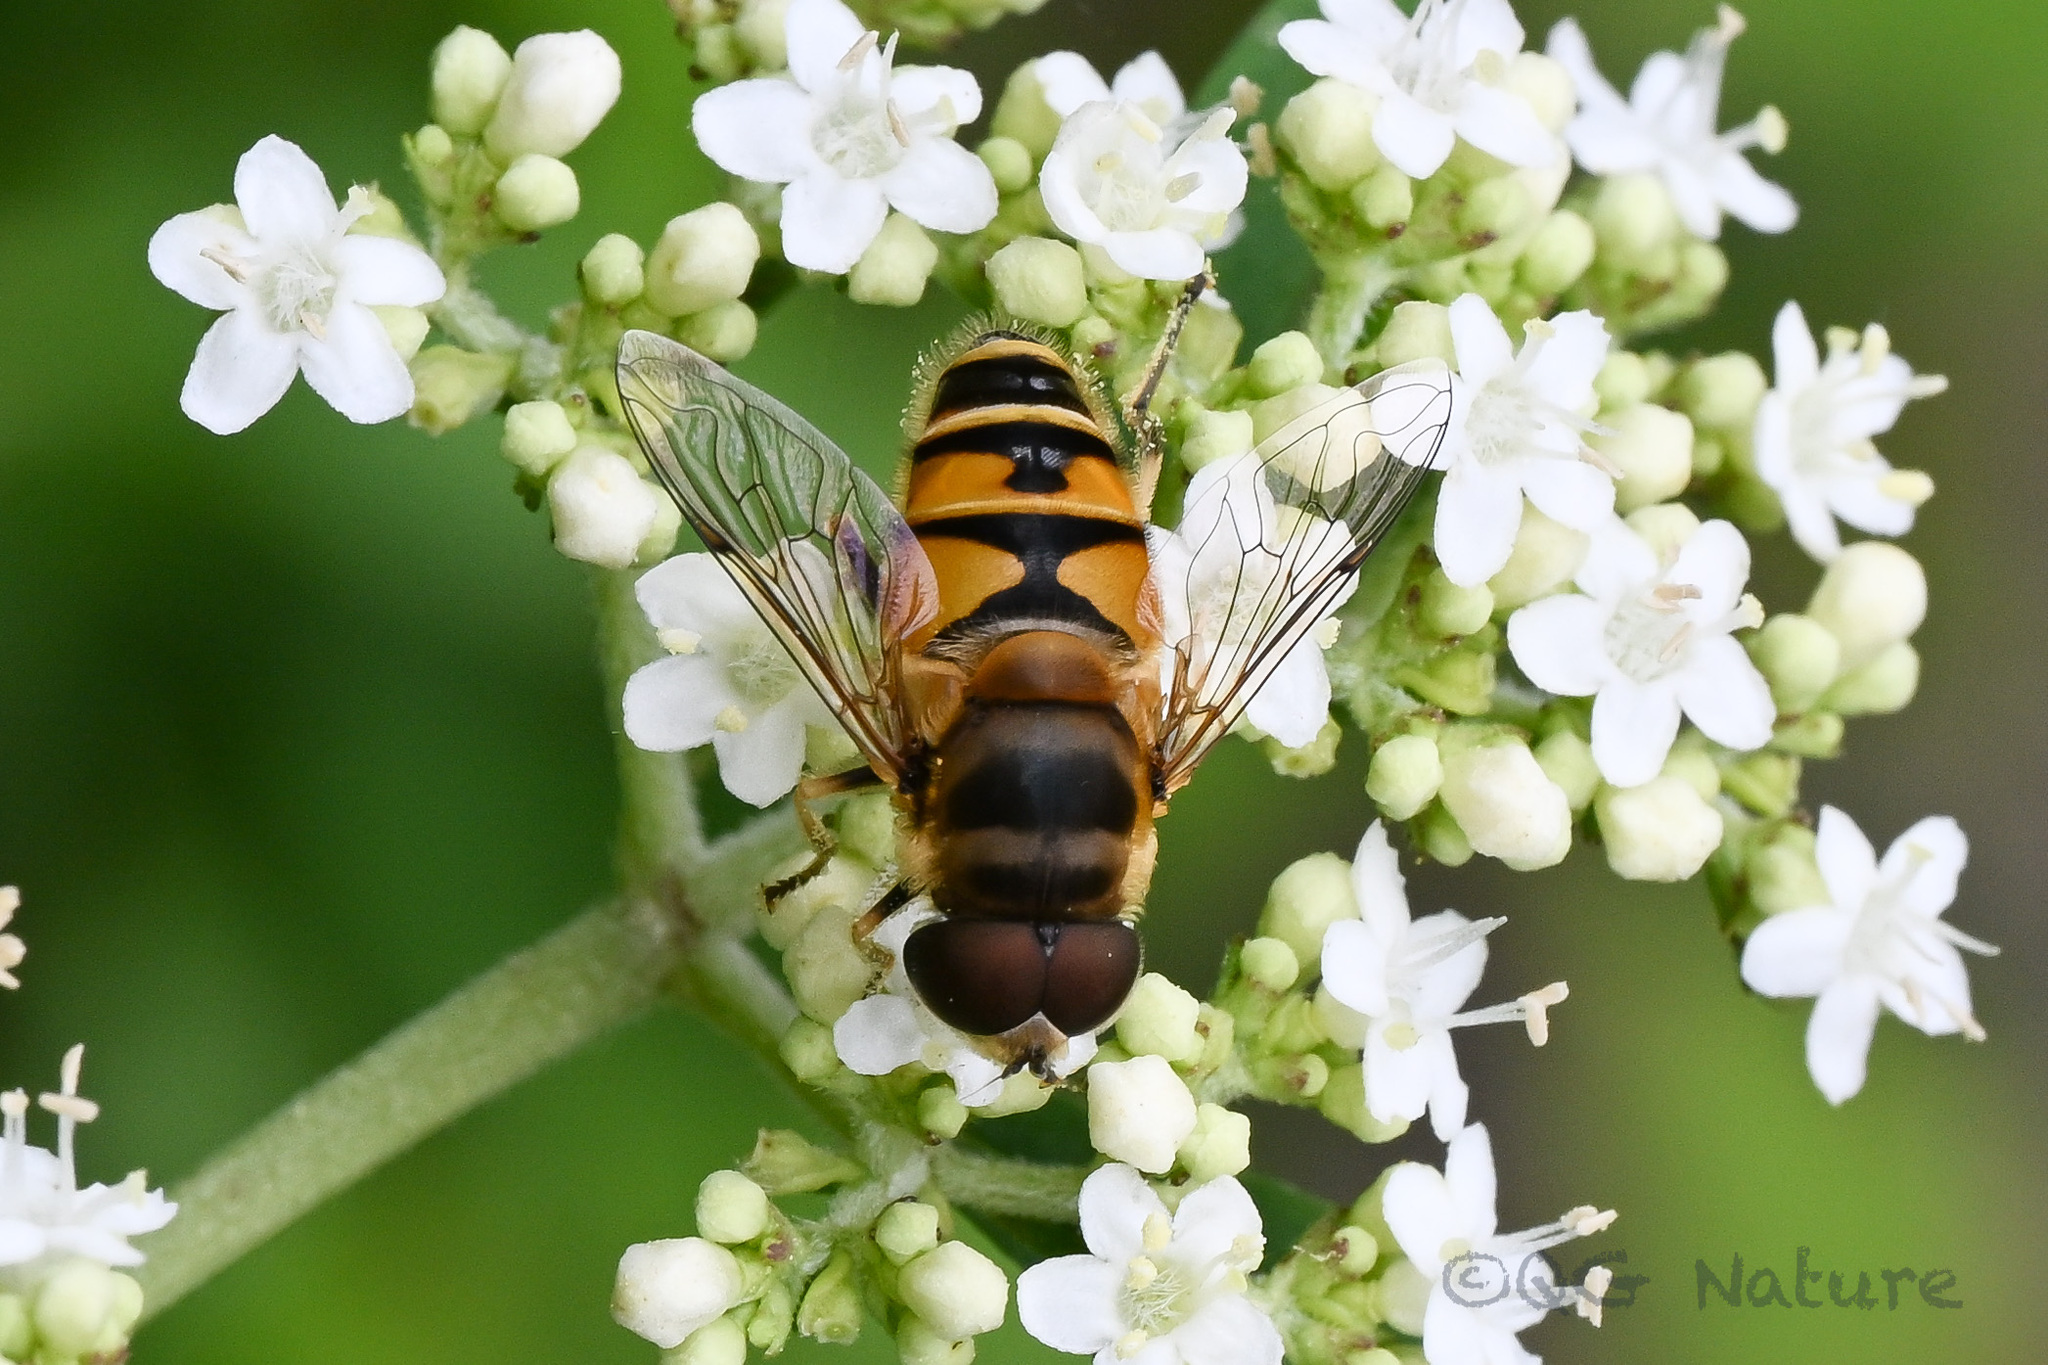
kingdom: Animalia
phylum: Arthropoda
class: Insecta
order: Diptera
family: Syrphidae
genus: Eristalis
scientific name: Eristalis cerealis
